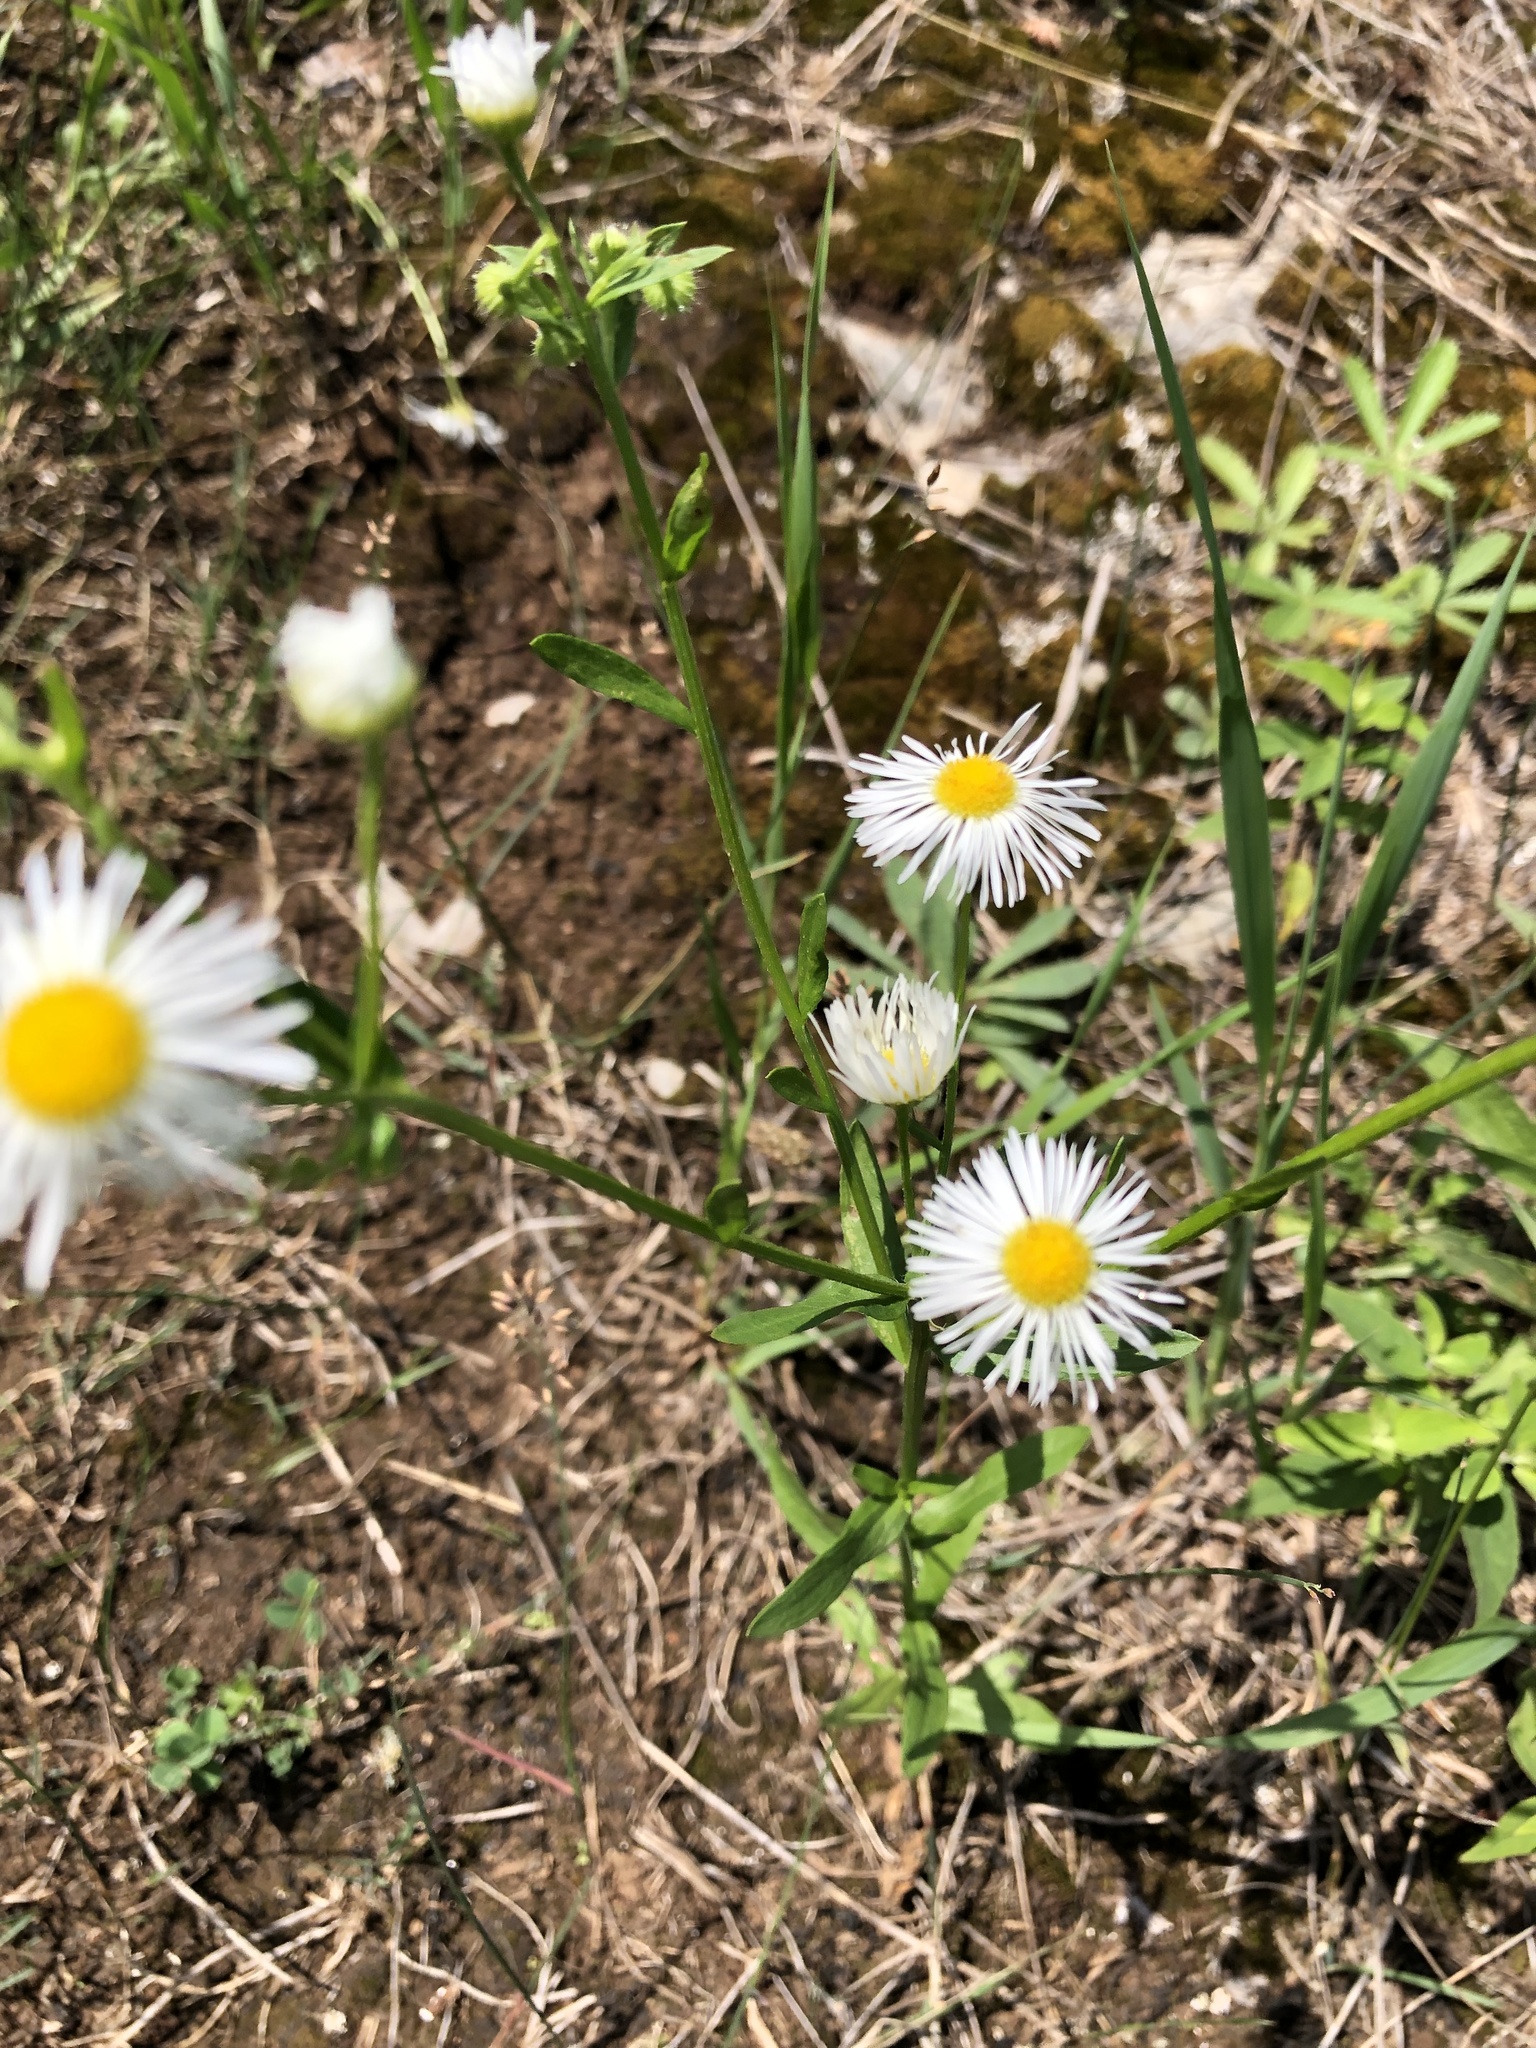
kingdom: Plantae
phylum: Tracheophyta
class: Magnoliopsida
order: Asterales
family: Asteraceae
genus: Erigeron
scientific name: Erigeron strigosus
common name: Common eastern fleabane
